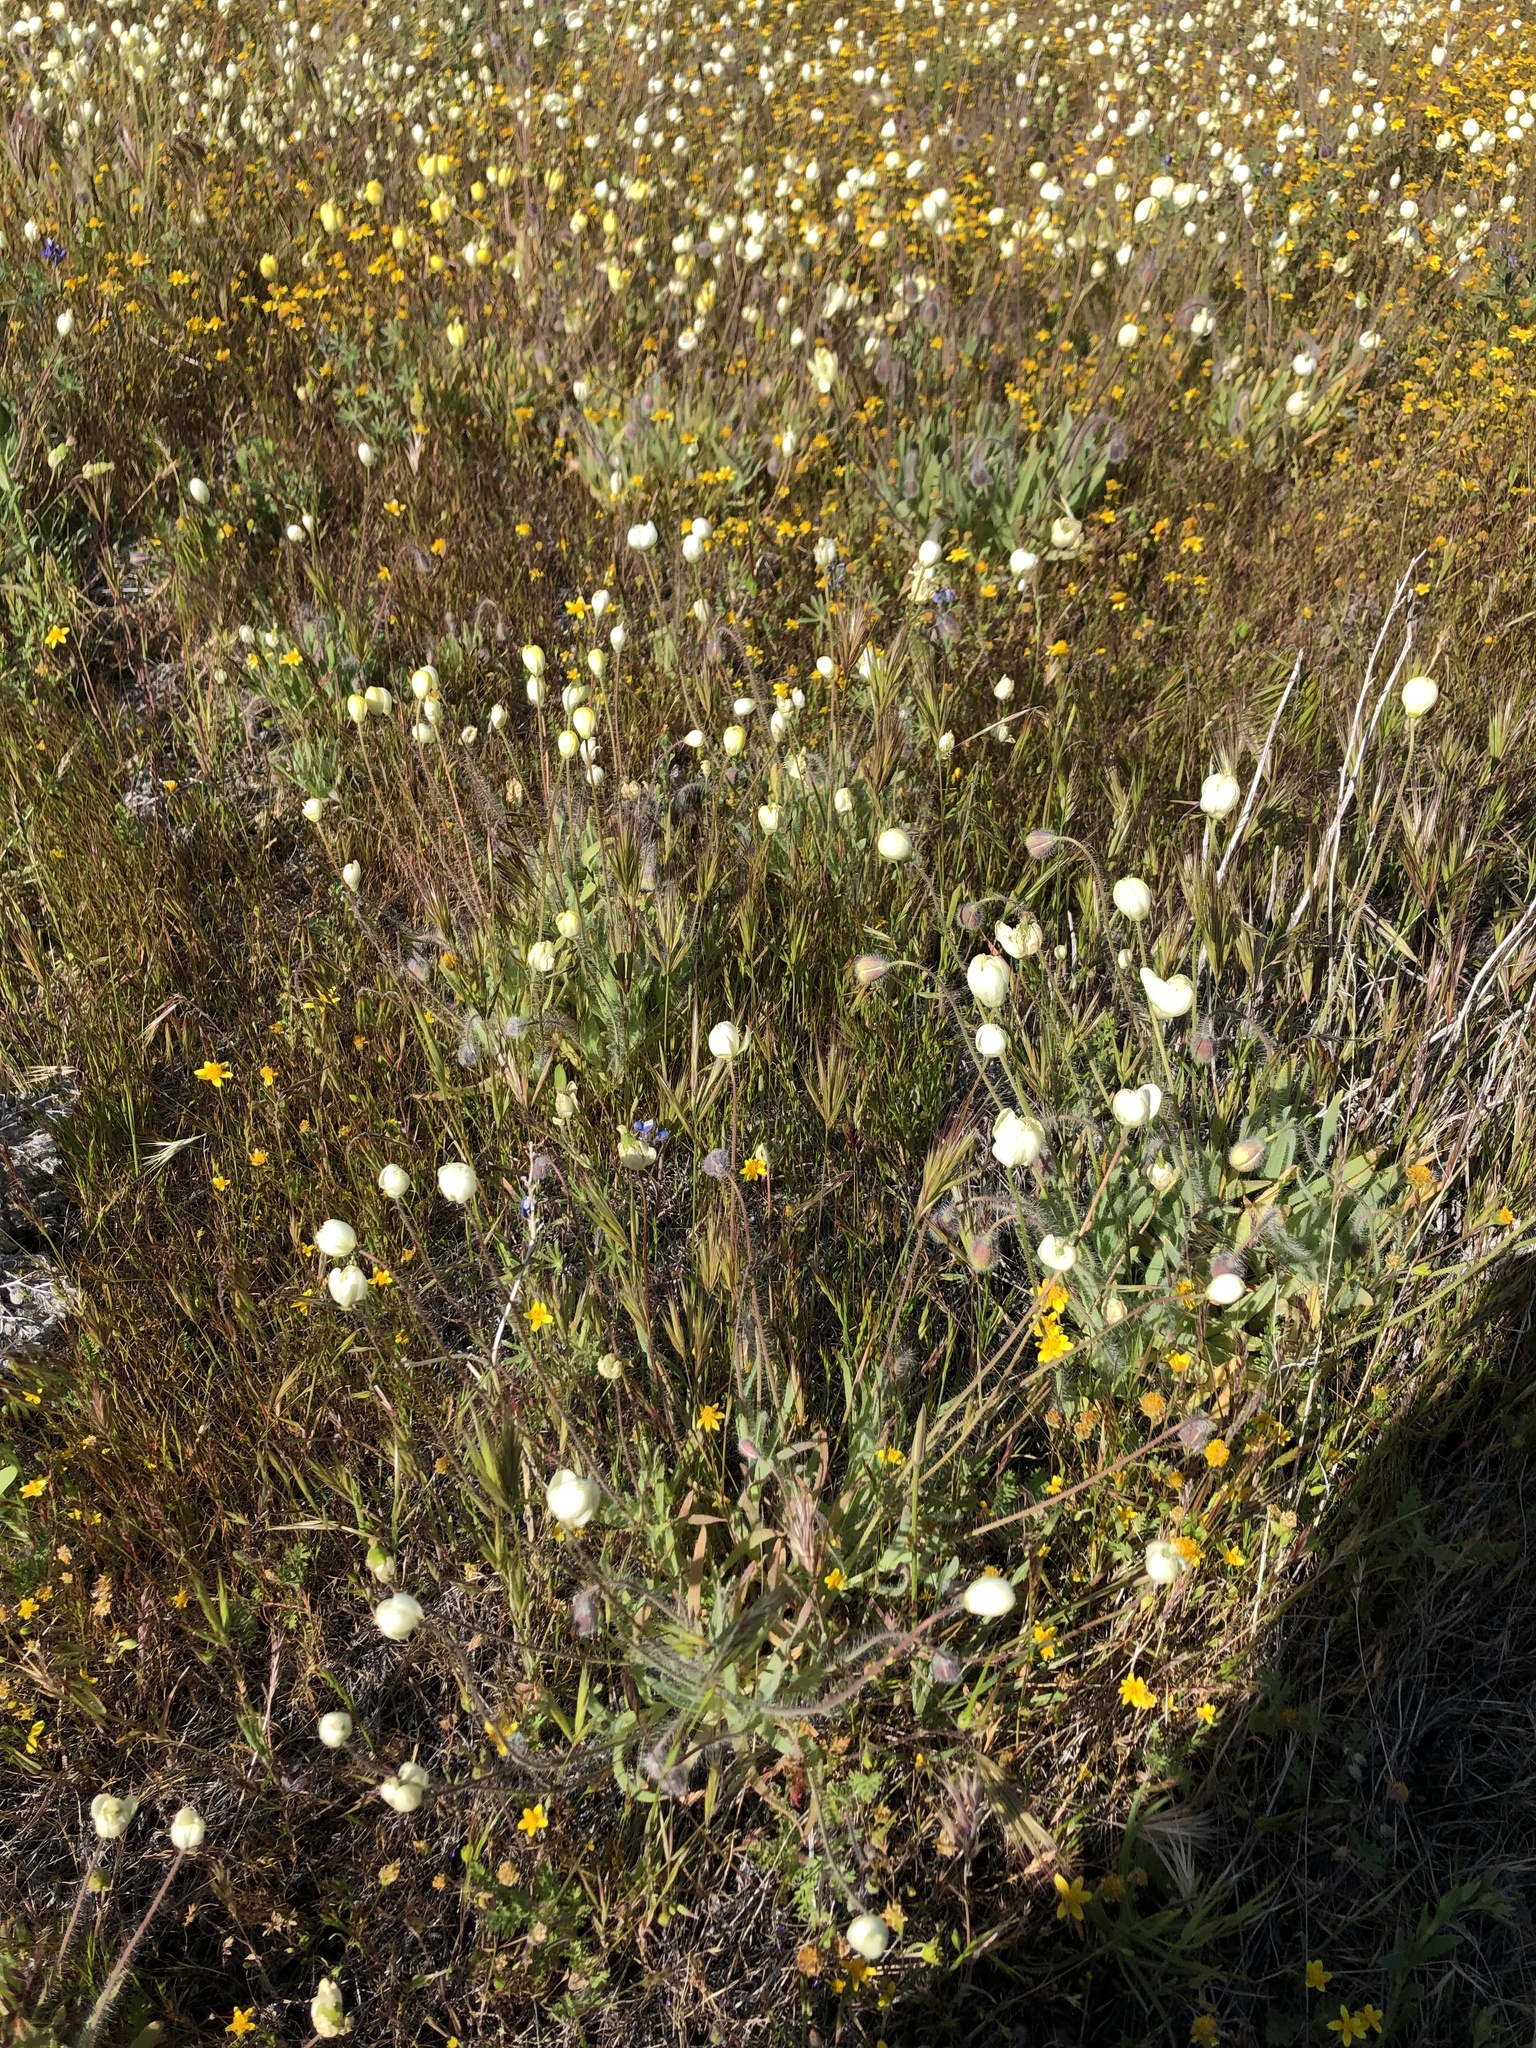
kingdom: Plantae
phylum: Tracheophyta
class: Magnoliopsida
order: Ranunculales
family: Papaveraceae
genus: Platystemon
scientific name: Platystemon californicus
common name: Cream-cups
